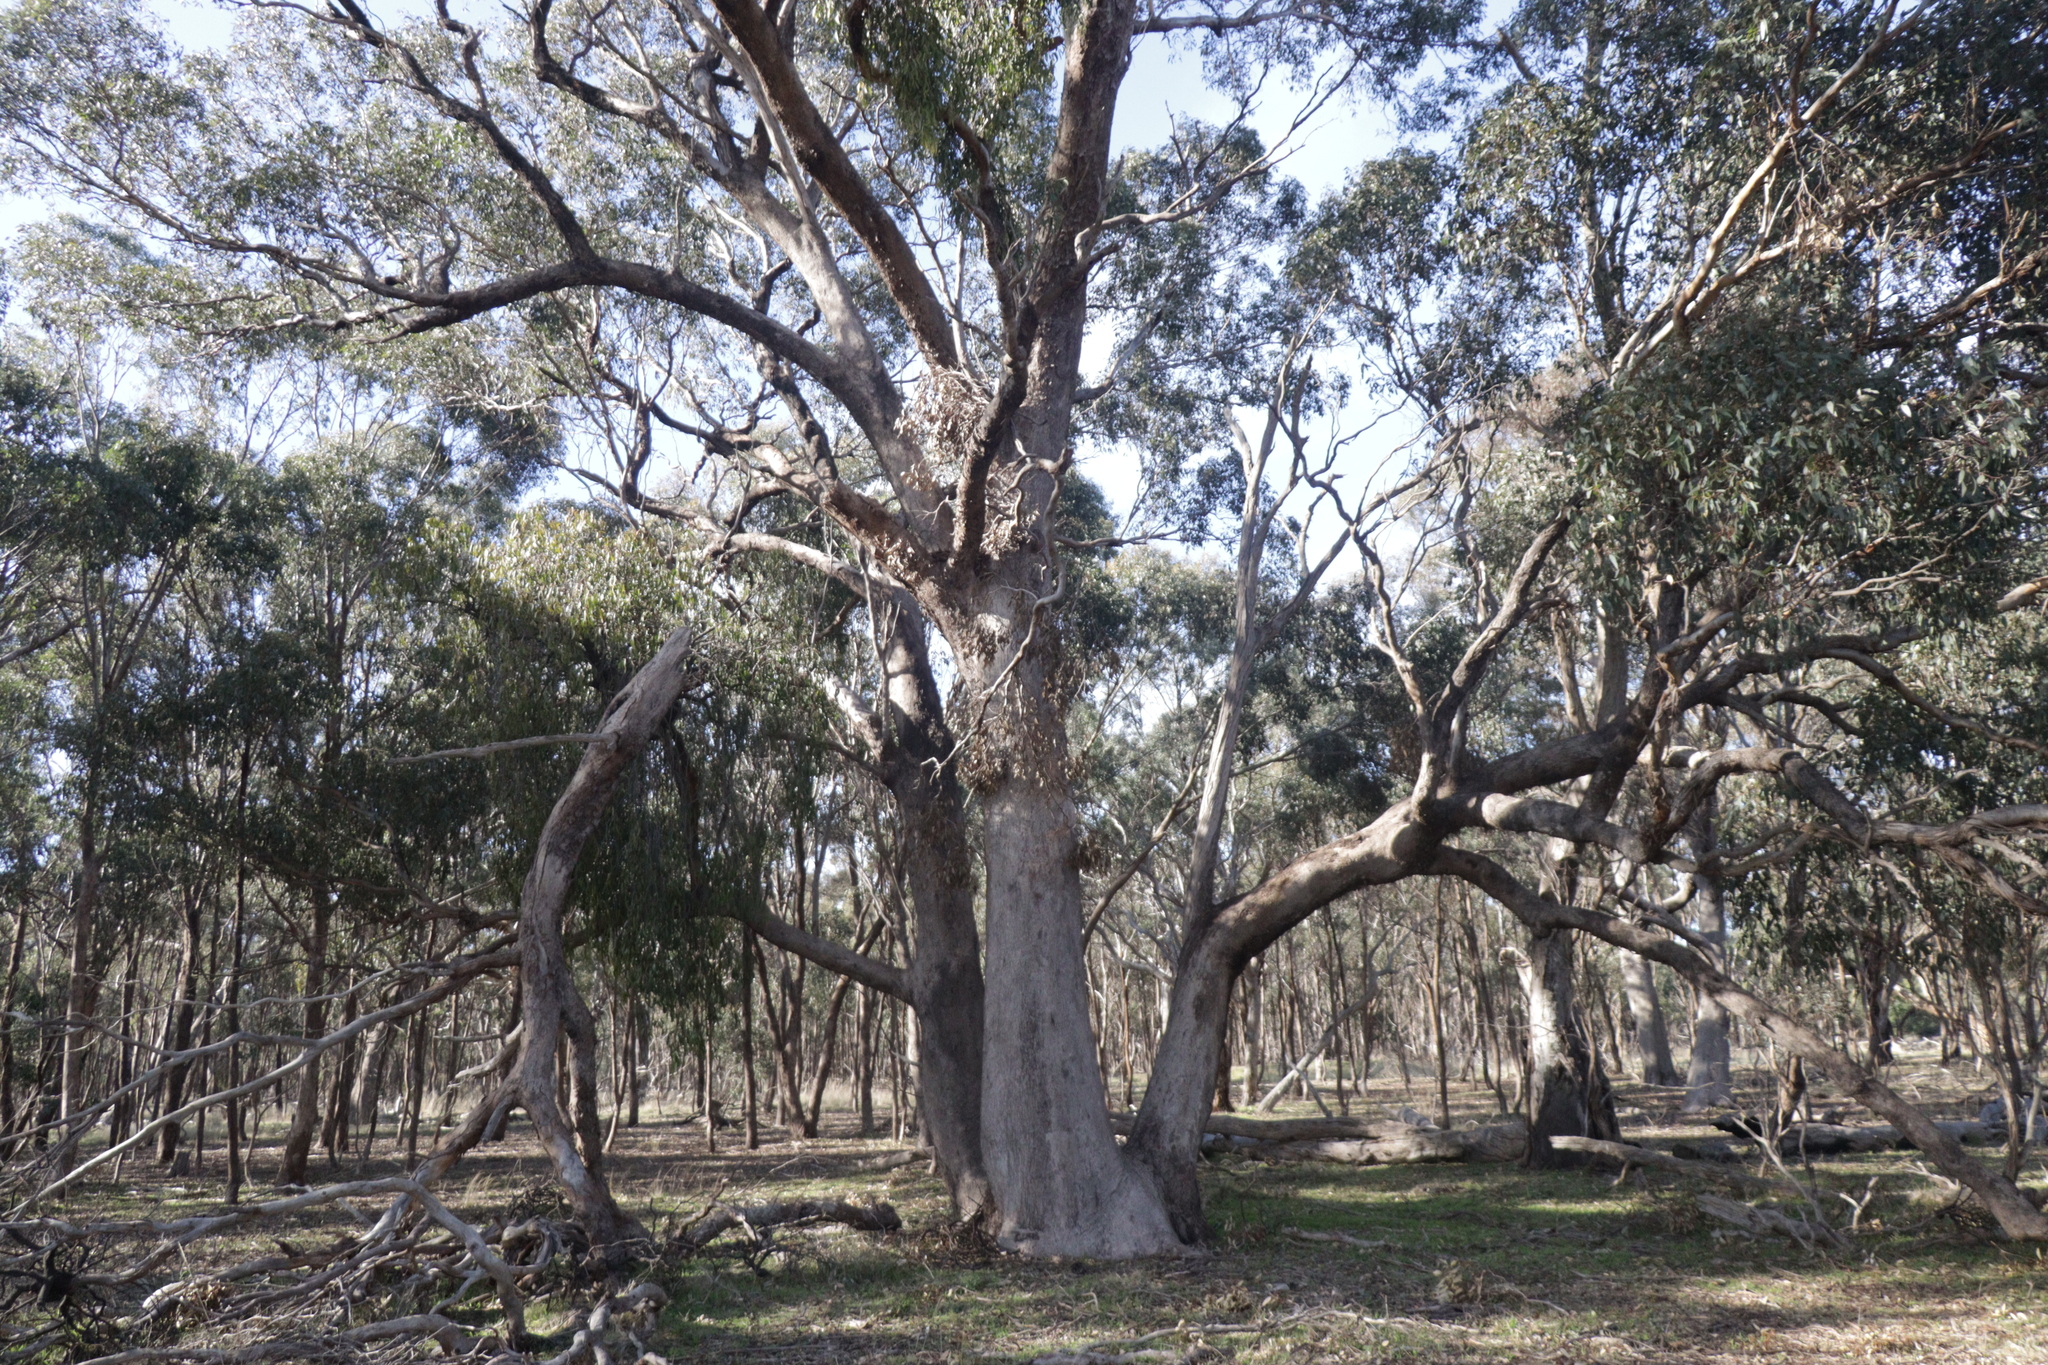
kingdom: Plantae
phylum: Tracheophyta
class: Magnoliopsida
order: Myrtales
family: Myrtaceae
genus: Eucalyptus
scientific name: Eucalyptus microcarpa
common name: Grey-box
